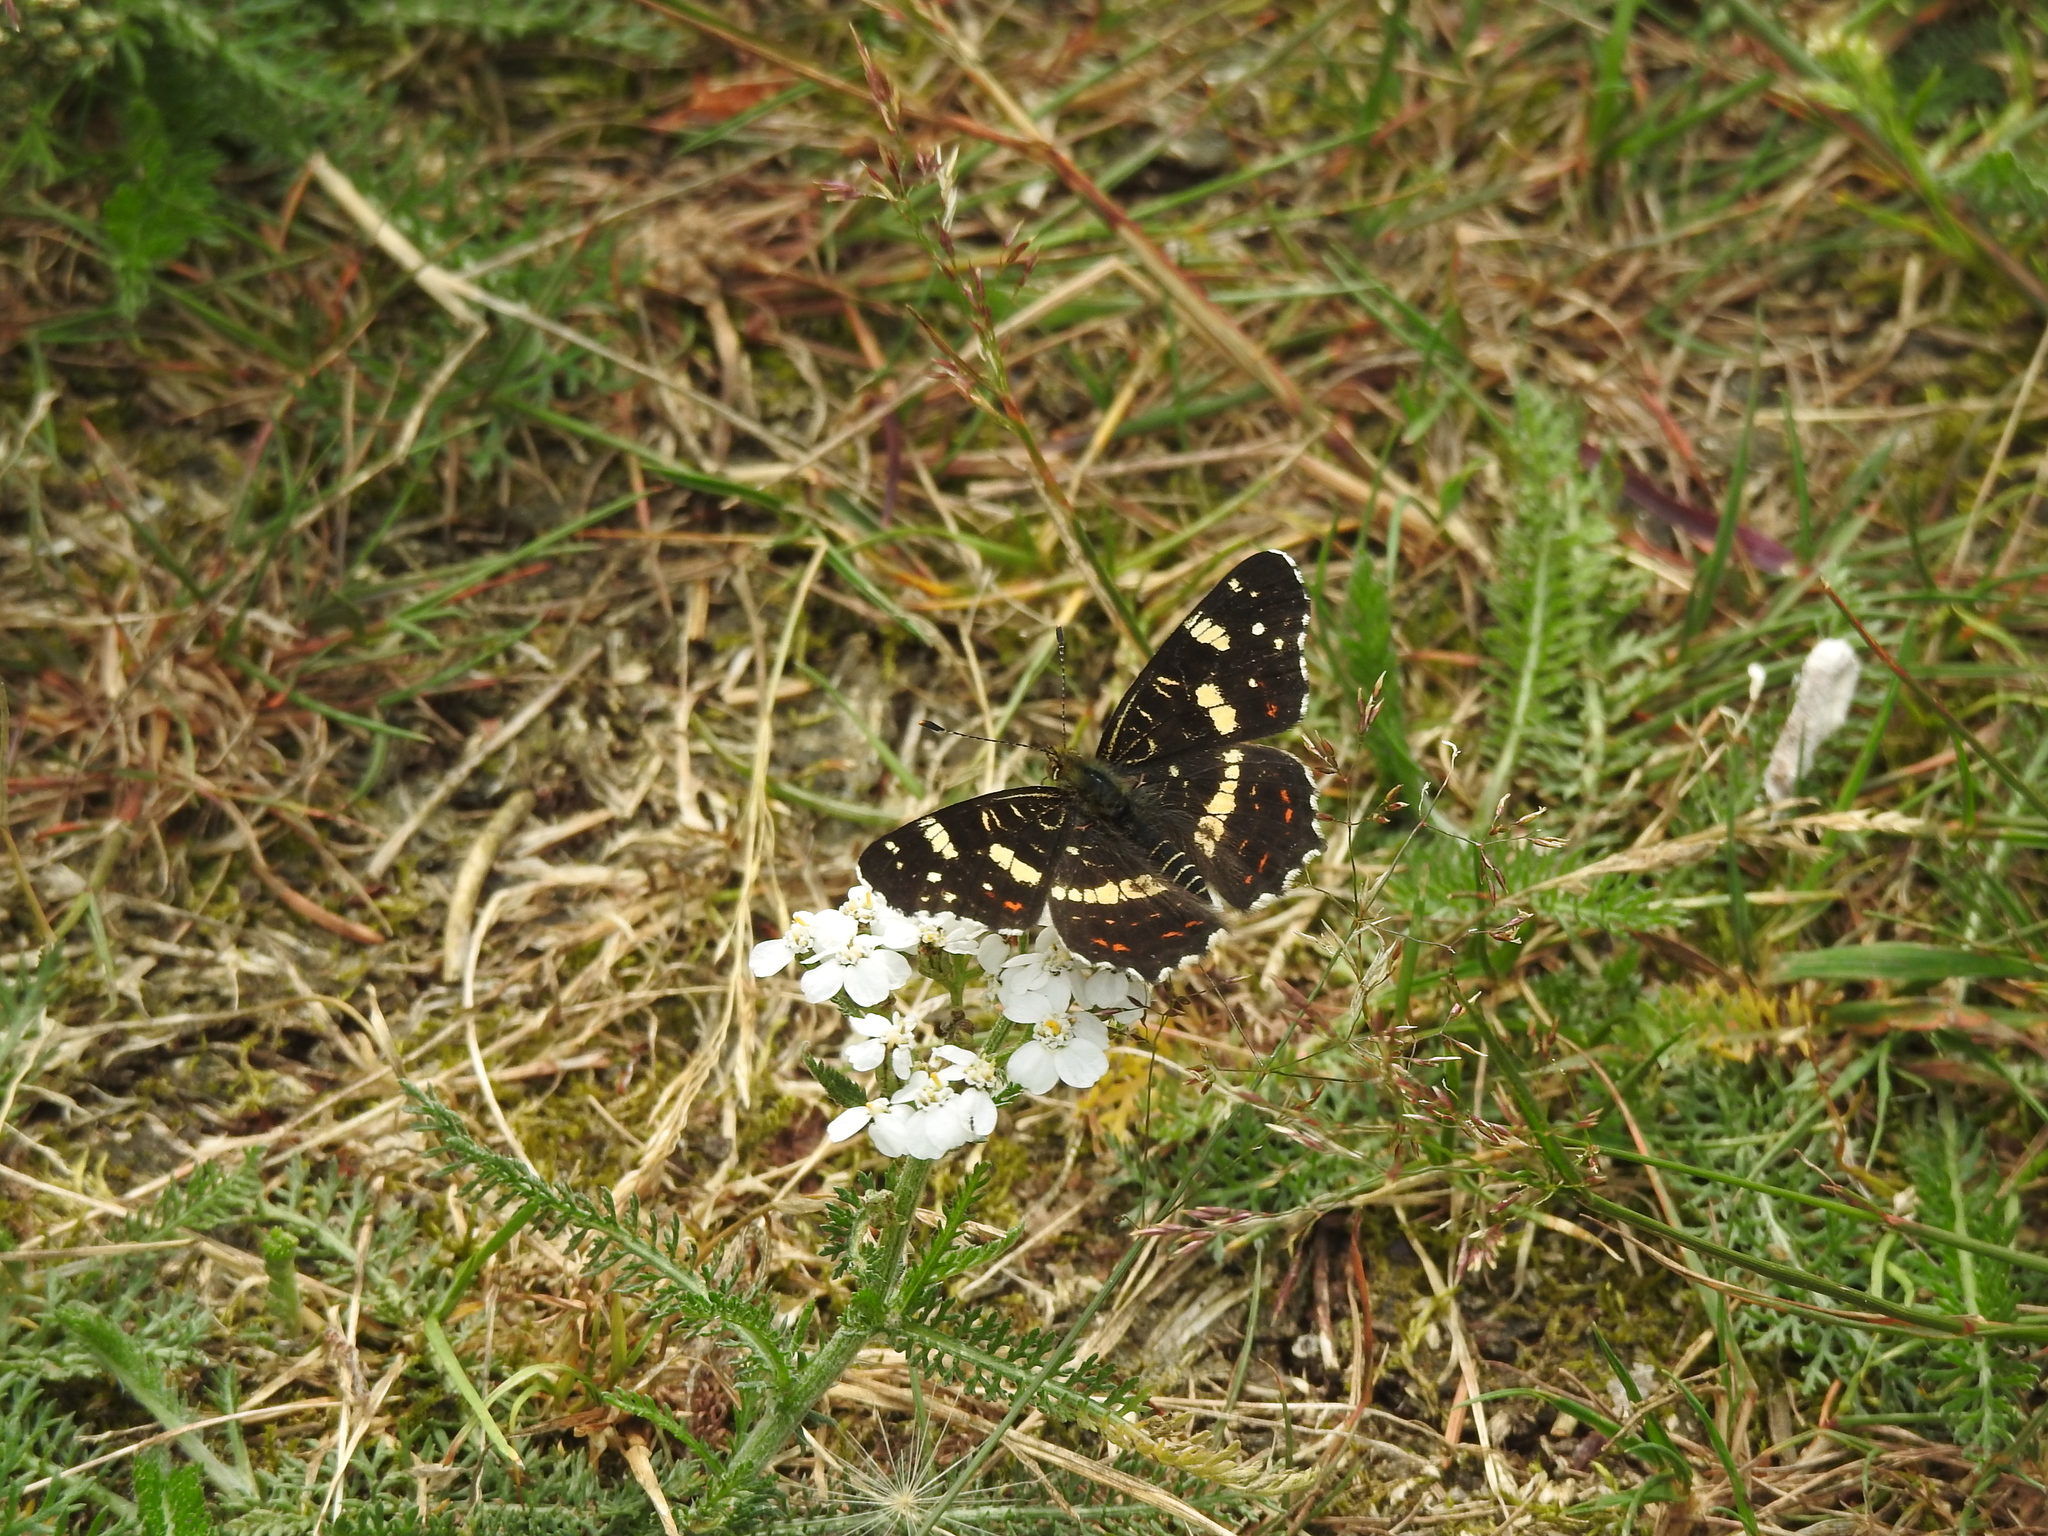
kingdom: Animalia
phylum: Arthropoda
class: Insecta
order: Lepidoptera
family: Nymphalidae
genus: Araschnia
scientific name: Araschnia levana
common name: Map butterfly
